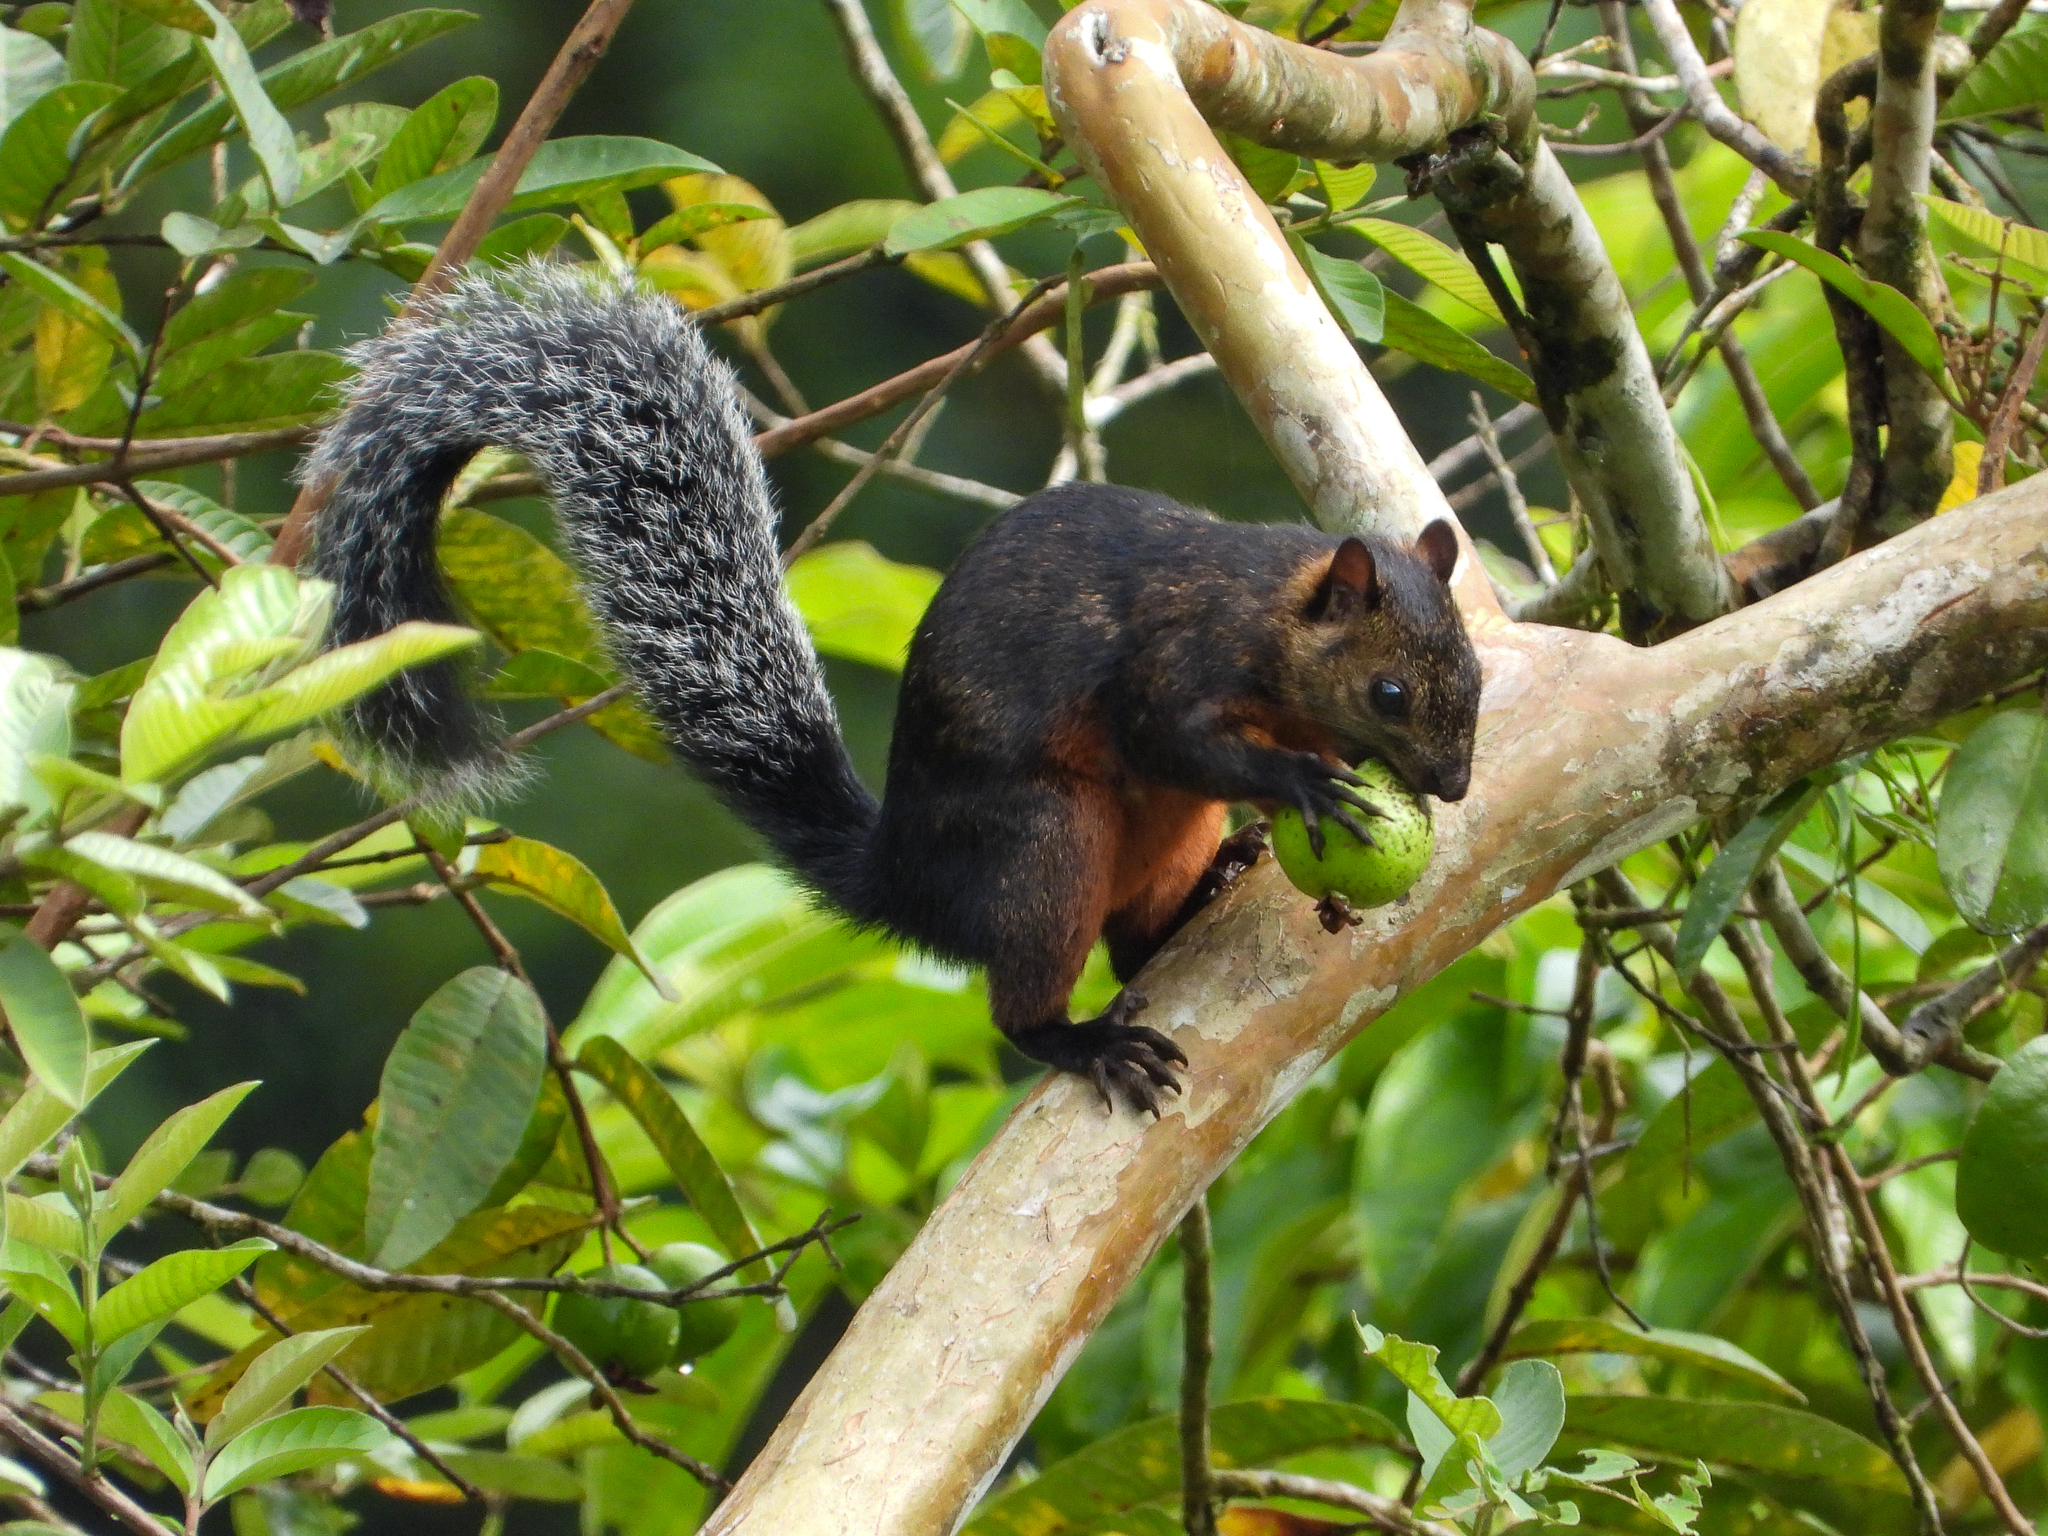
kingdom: Animalia
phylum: Chordata
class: Mammalia
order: Rodentia
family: Sciuridae
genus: Sciurus
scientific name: Sciurus variegatoides
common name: Variegated squirrel
